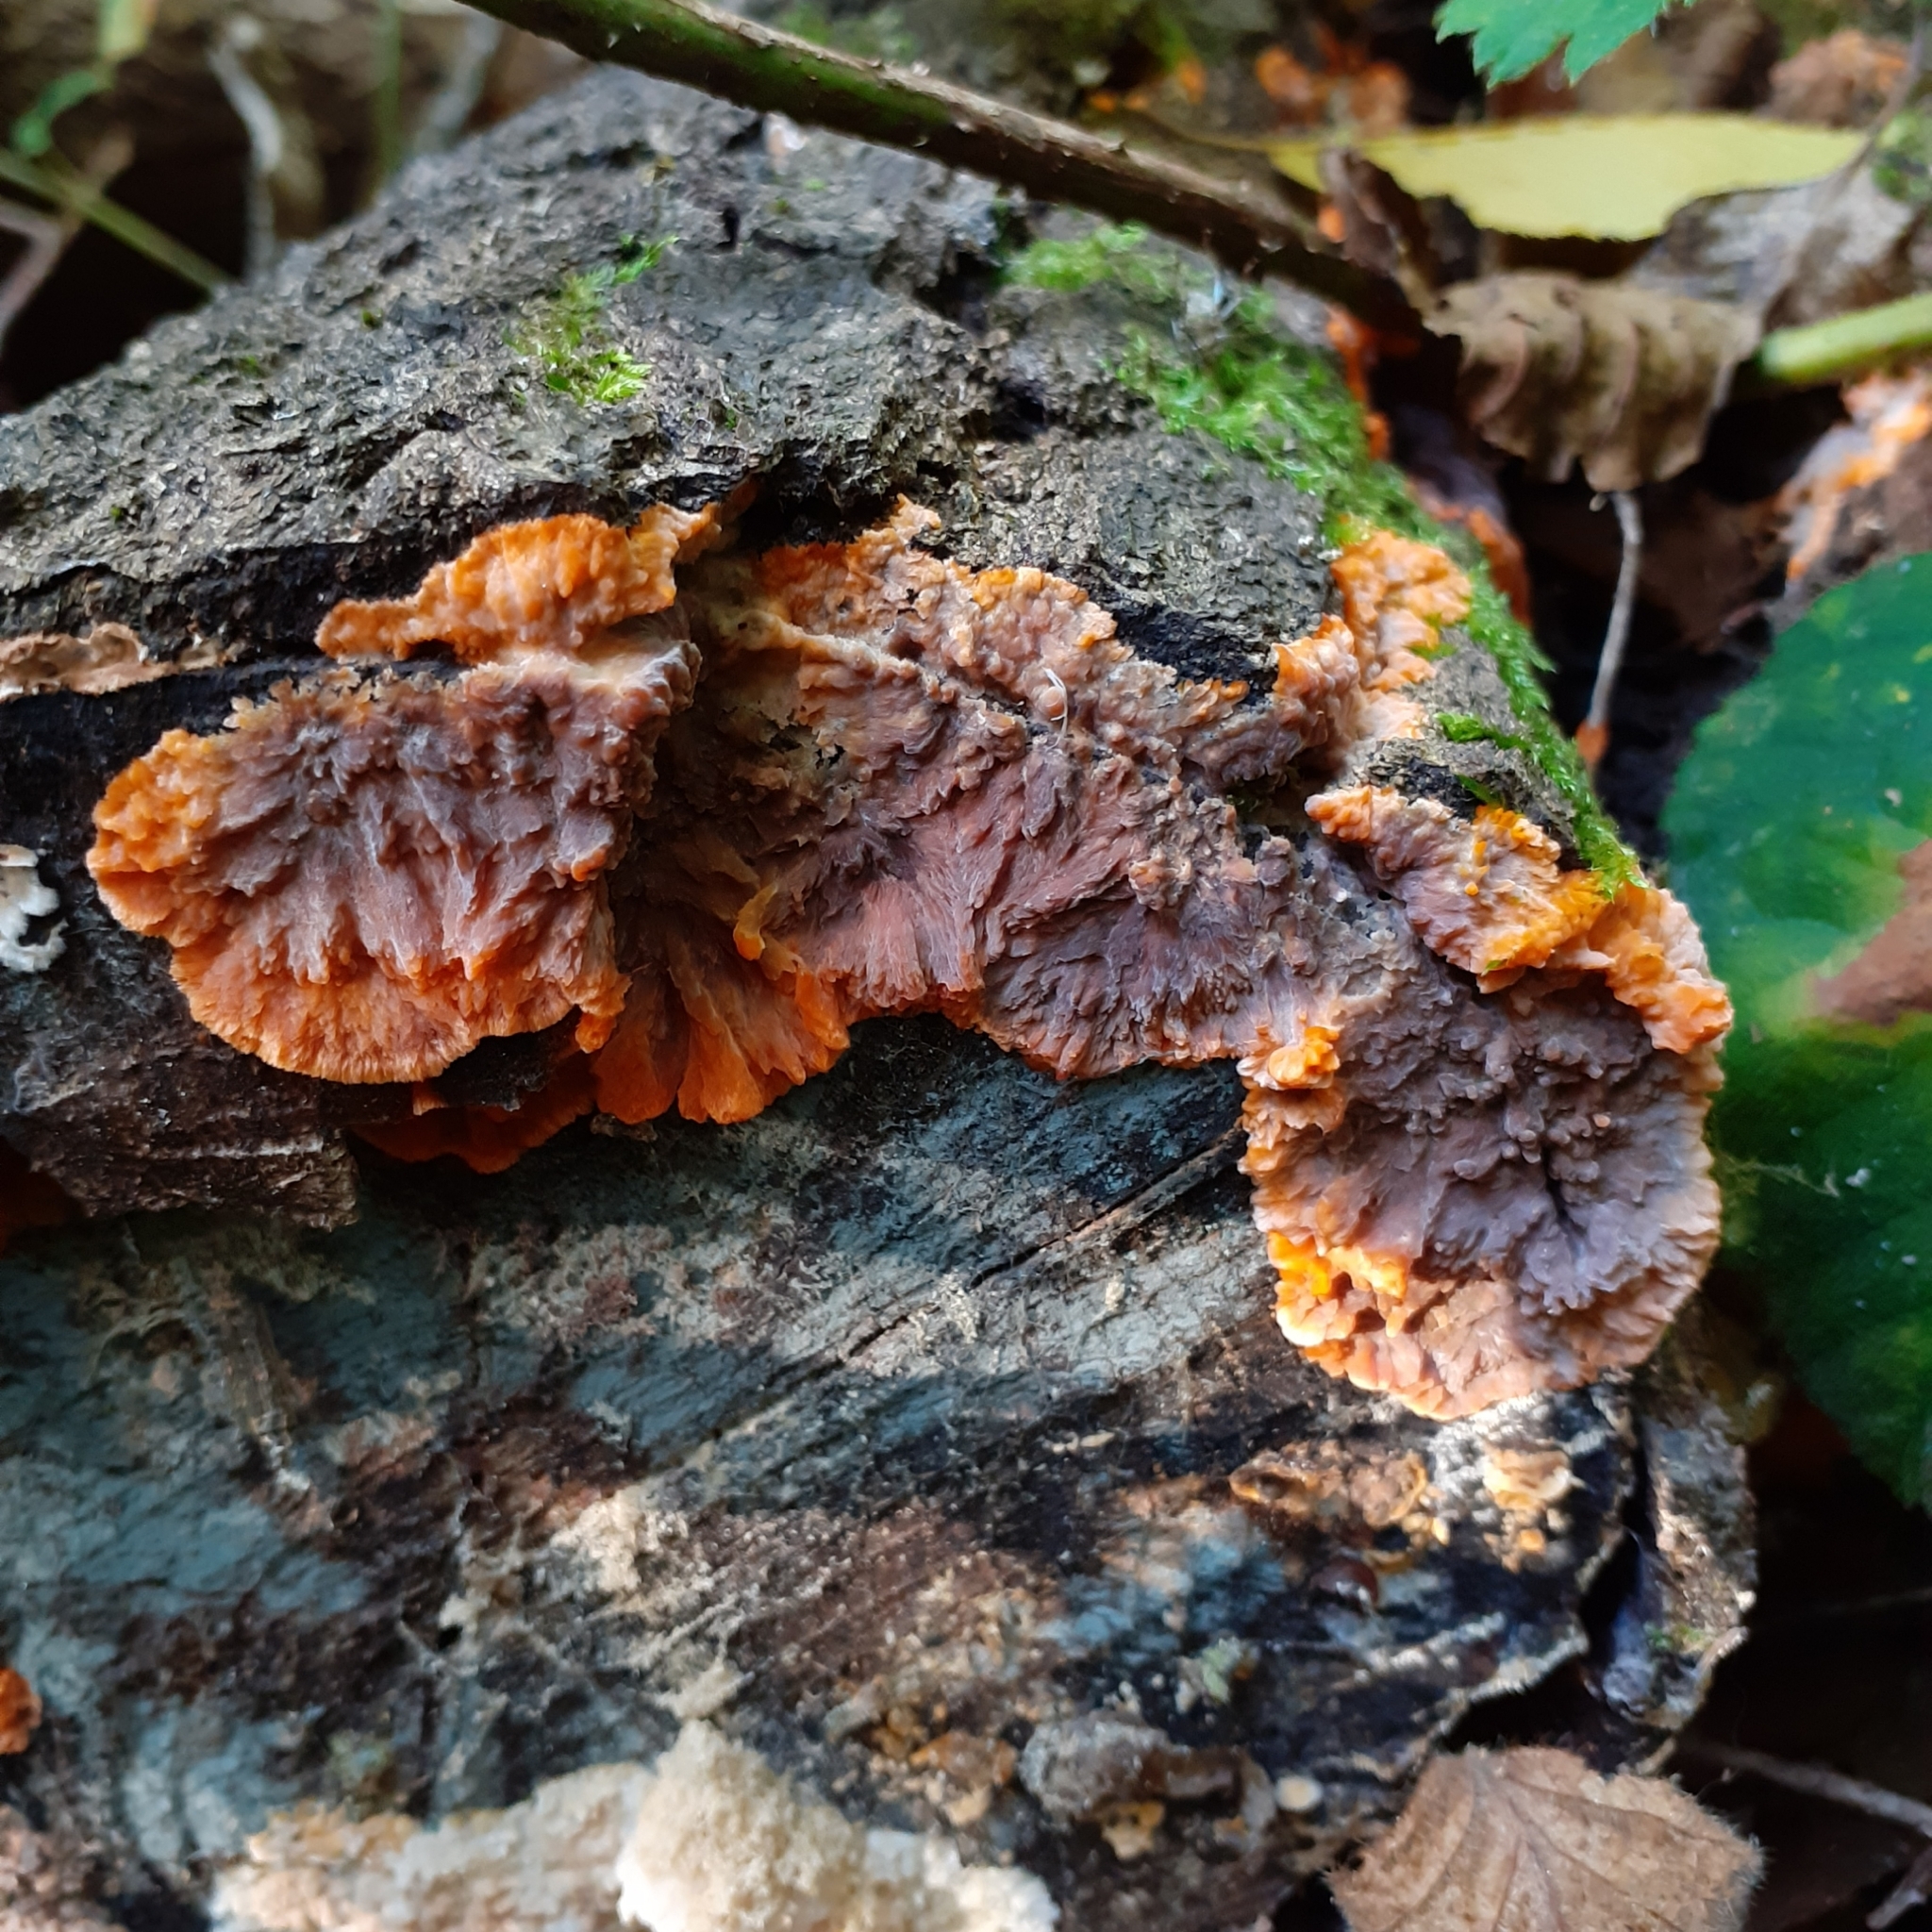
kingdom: Fungi
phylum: Basidiomycota
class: Agaricomycetes
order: Polyporales
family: Meruliaceae
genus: Phlebia
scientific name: Phlebia radiata
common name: Wrinkled crust
